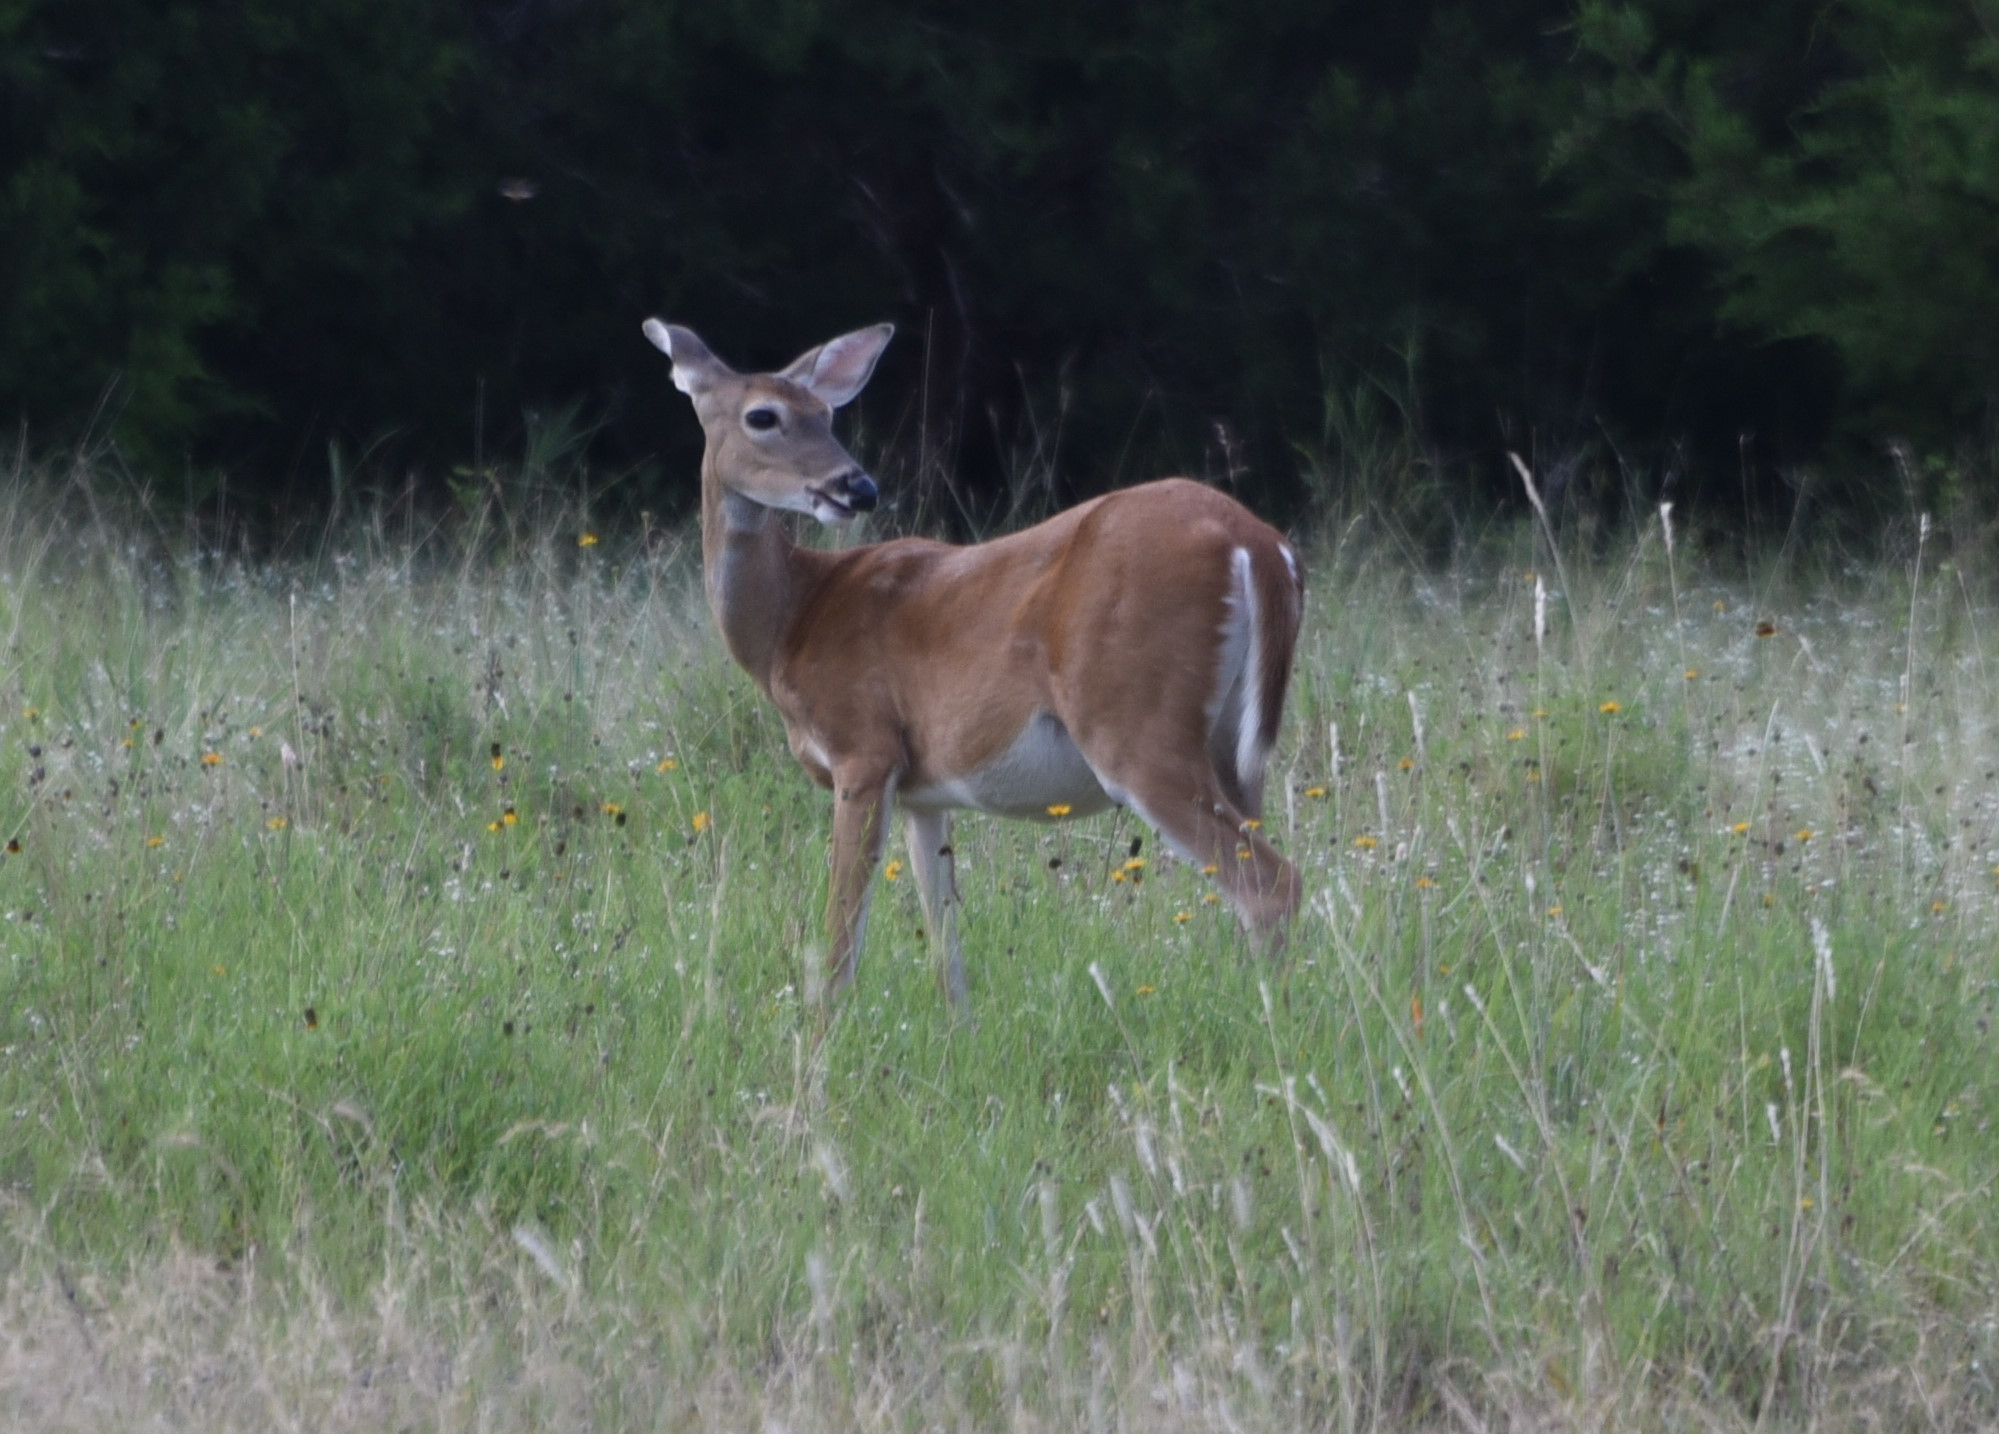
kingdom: Animalia
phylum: Chordata
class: Mammalia
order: Artiodactyla
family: Cervidae
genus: Odocoileus
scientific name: Odocoileus virginianus
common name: White-tailed deer
